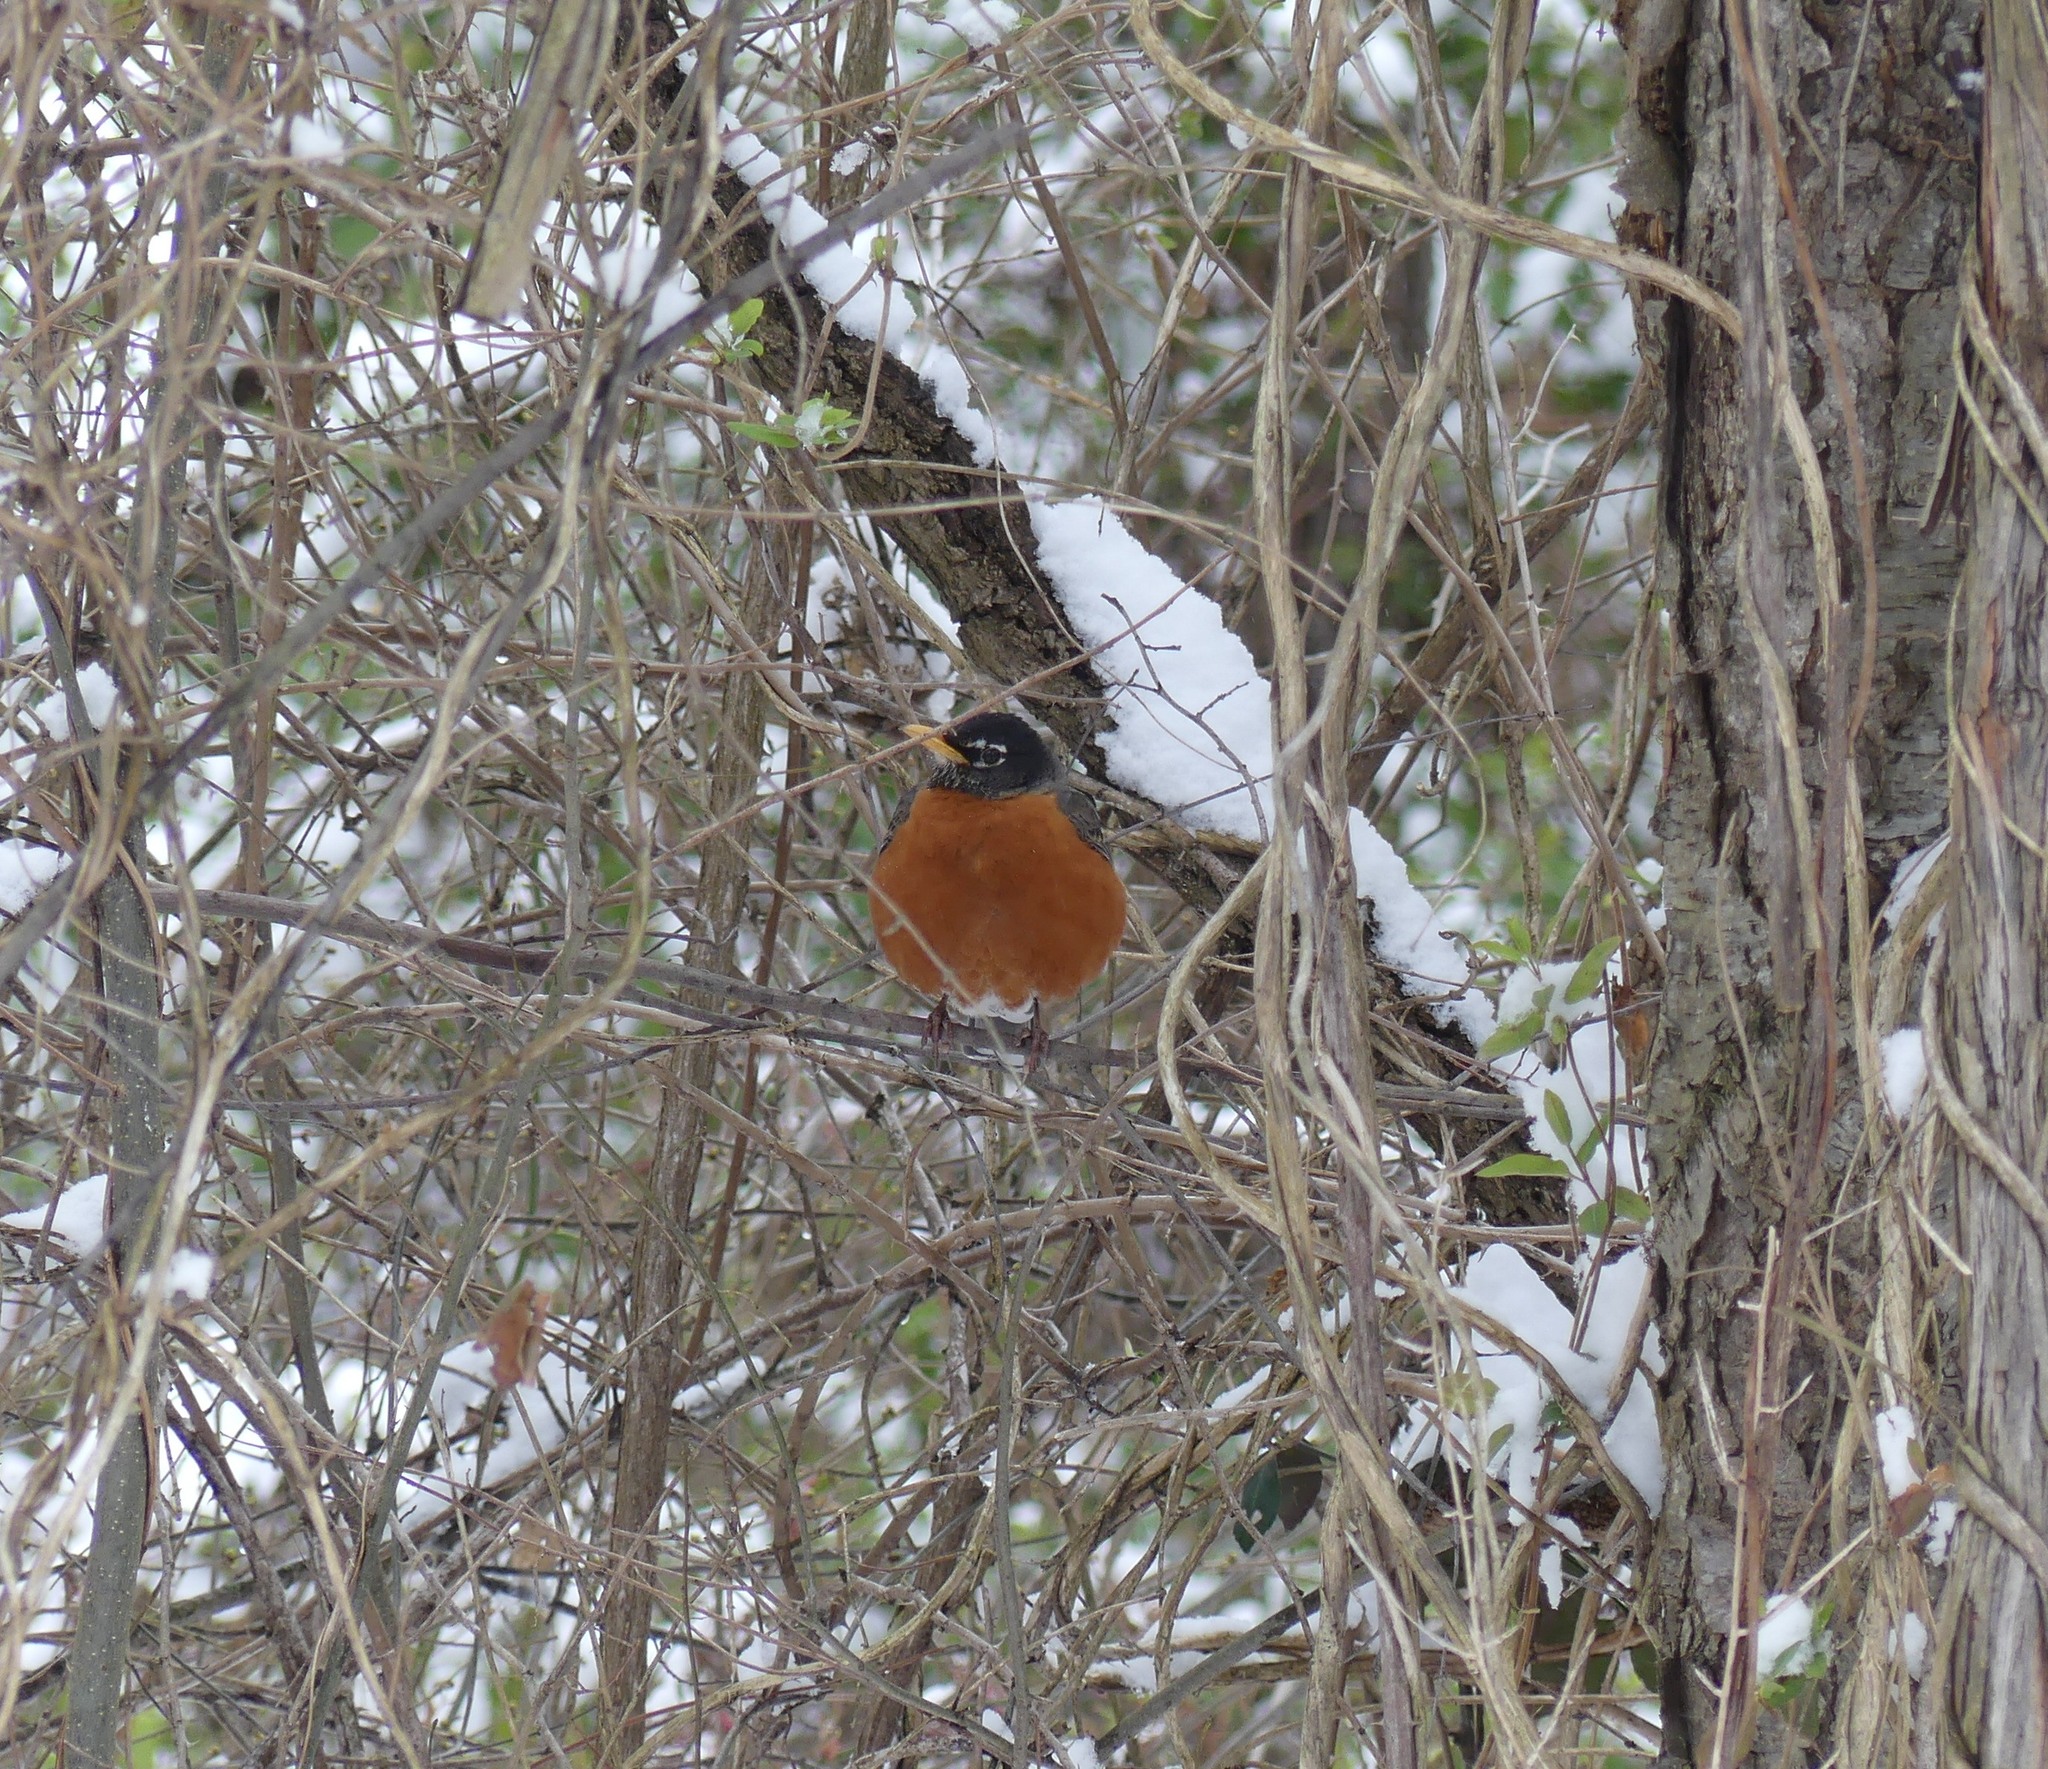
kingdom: Animalia
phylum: Chordata
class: Aves
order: Passeriformes
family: Turdidae
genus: Turdus
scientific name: Turdus migratorius
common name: American robin
